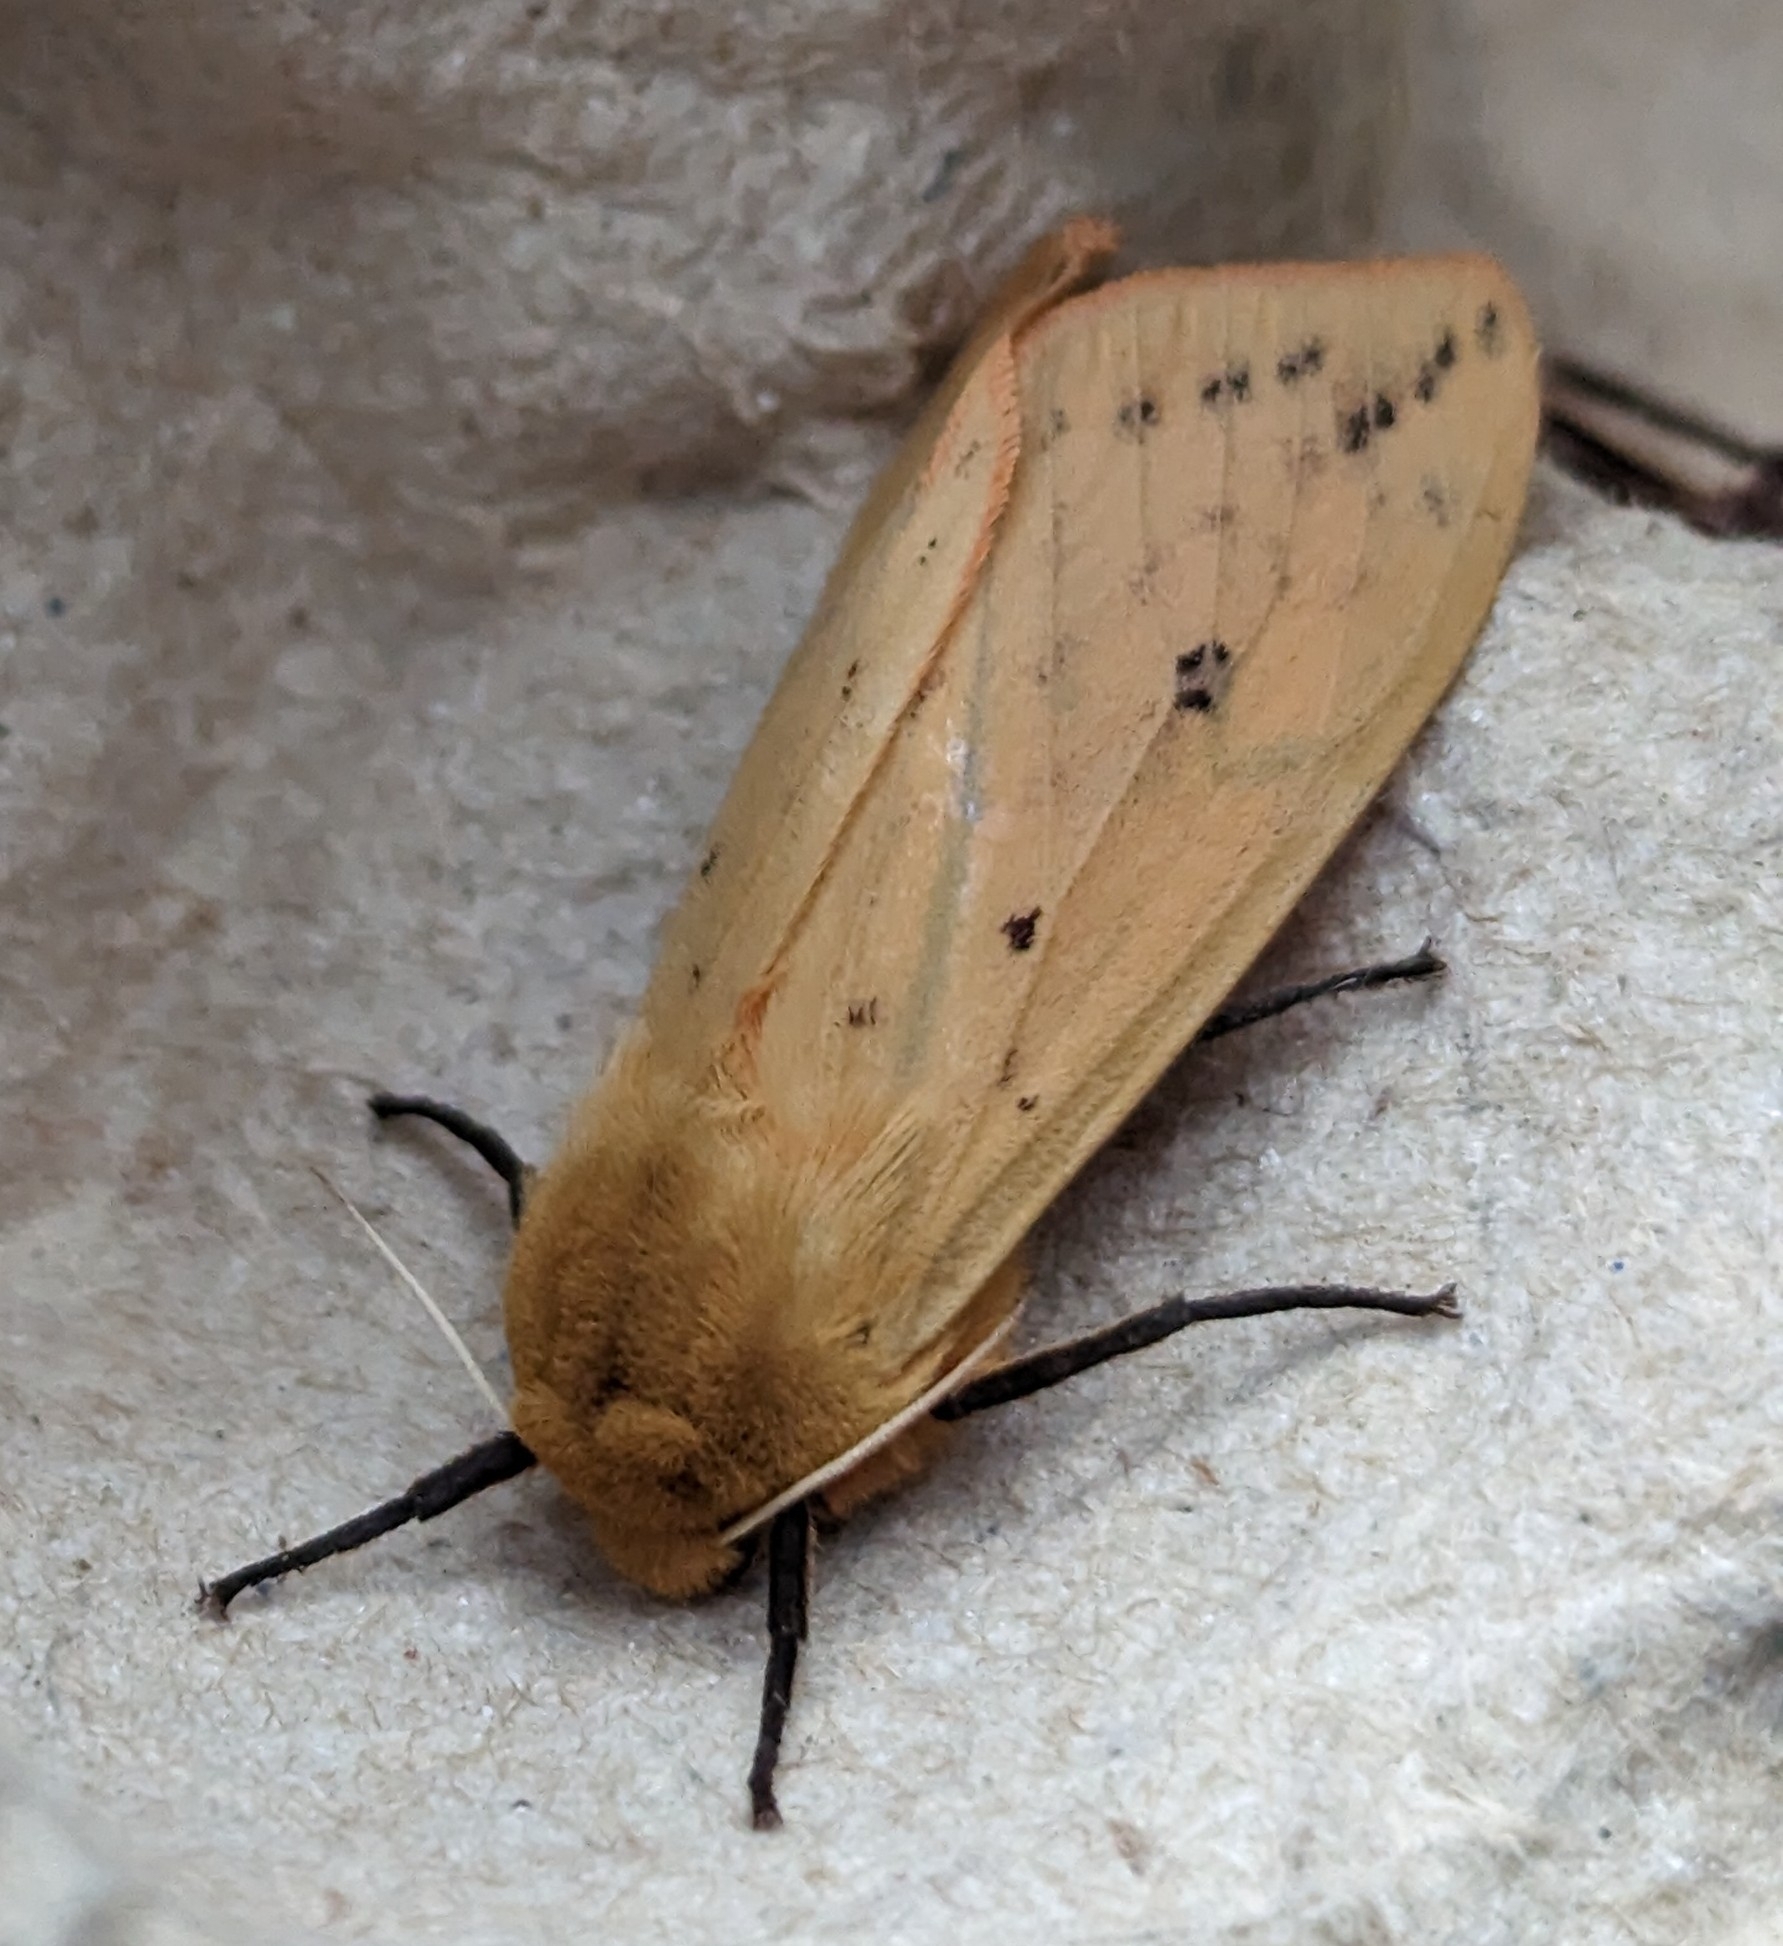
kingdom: Animalia
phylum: Arthropoda
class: Insecta
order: Lepidoptera
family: Erebidae
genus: Pyrrharctia
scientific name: Pyrrharctia isabella
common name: Isabella tiger moth
